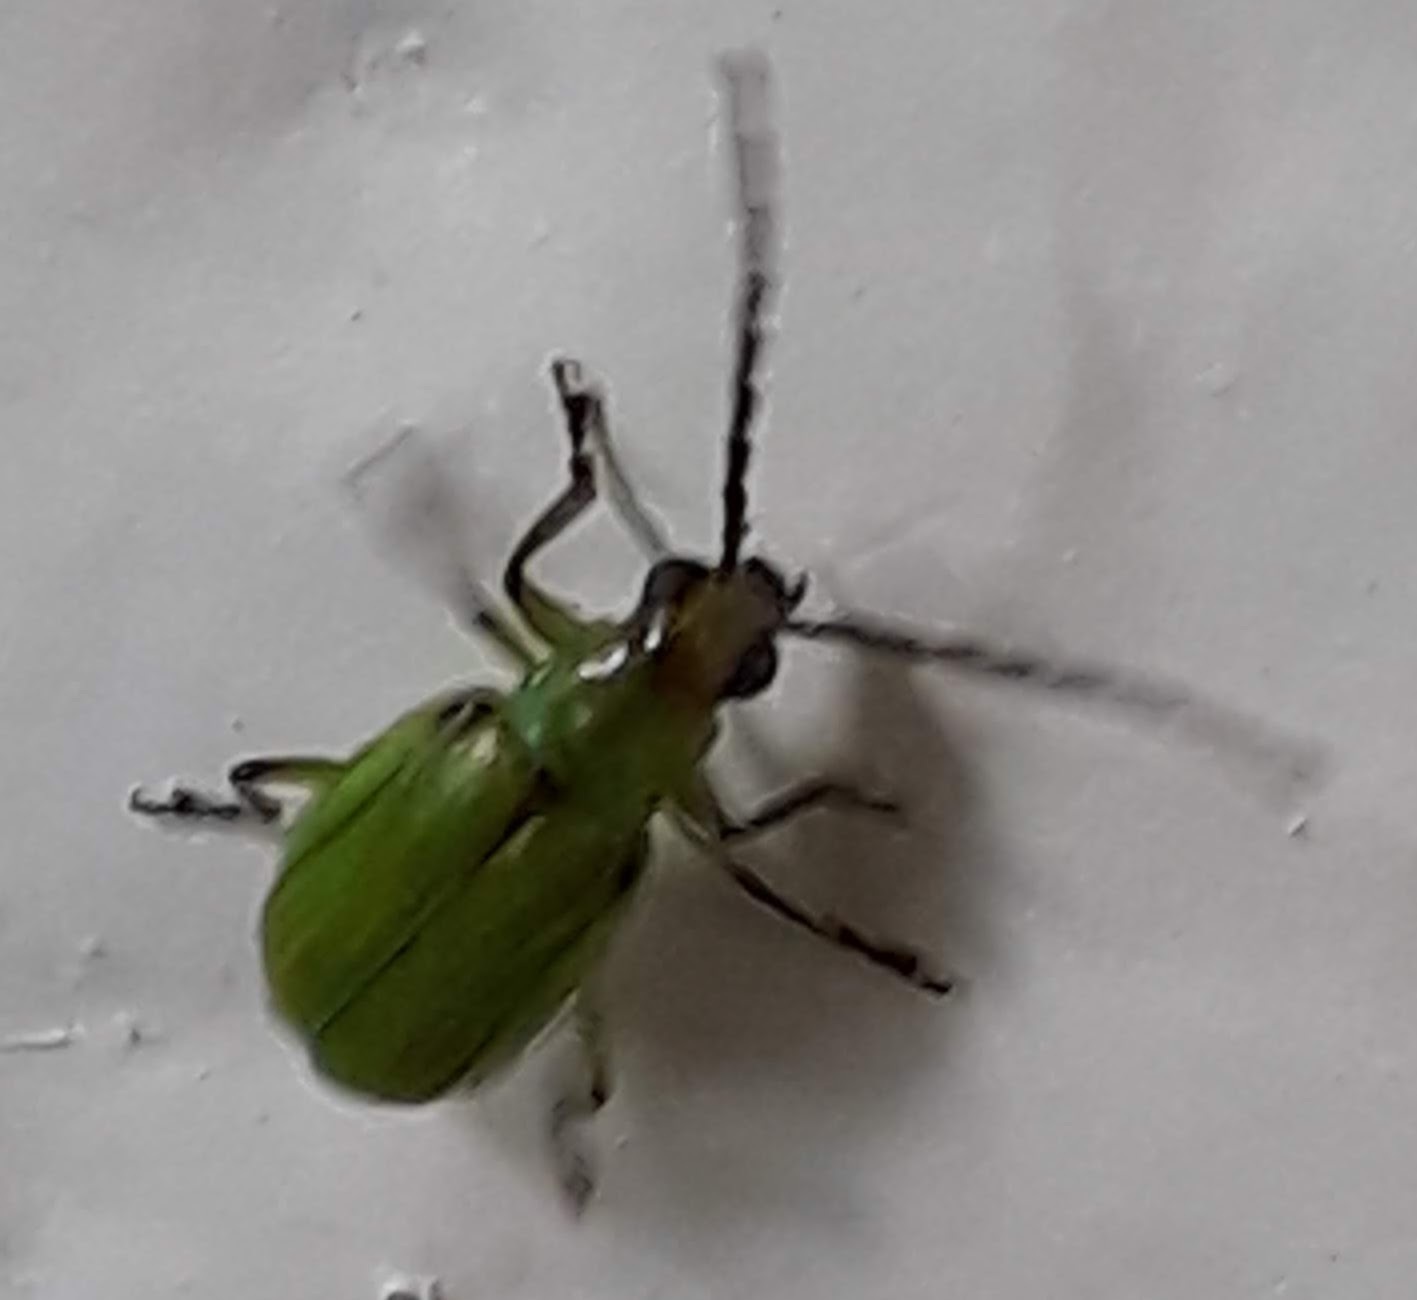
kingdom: Animalia
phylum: Arthropoda
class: Insecta
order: Coleoptera
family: Chrysomelidae
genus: Diabrotica
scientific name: Diabrotica barberi
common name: Northern corn rootworm
